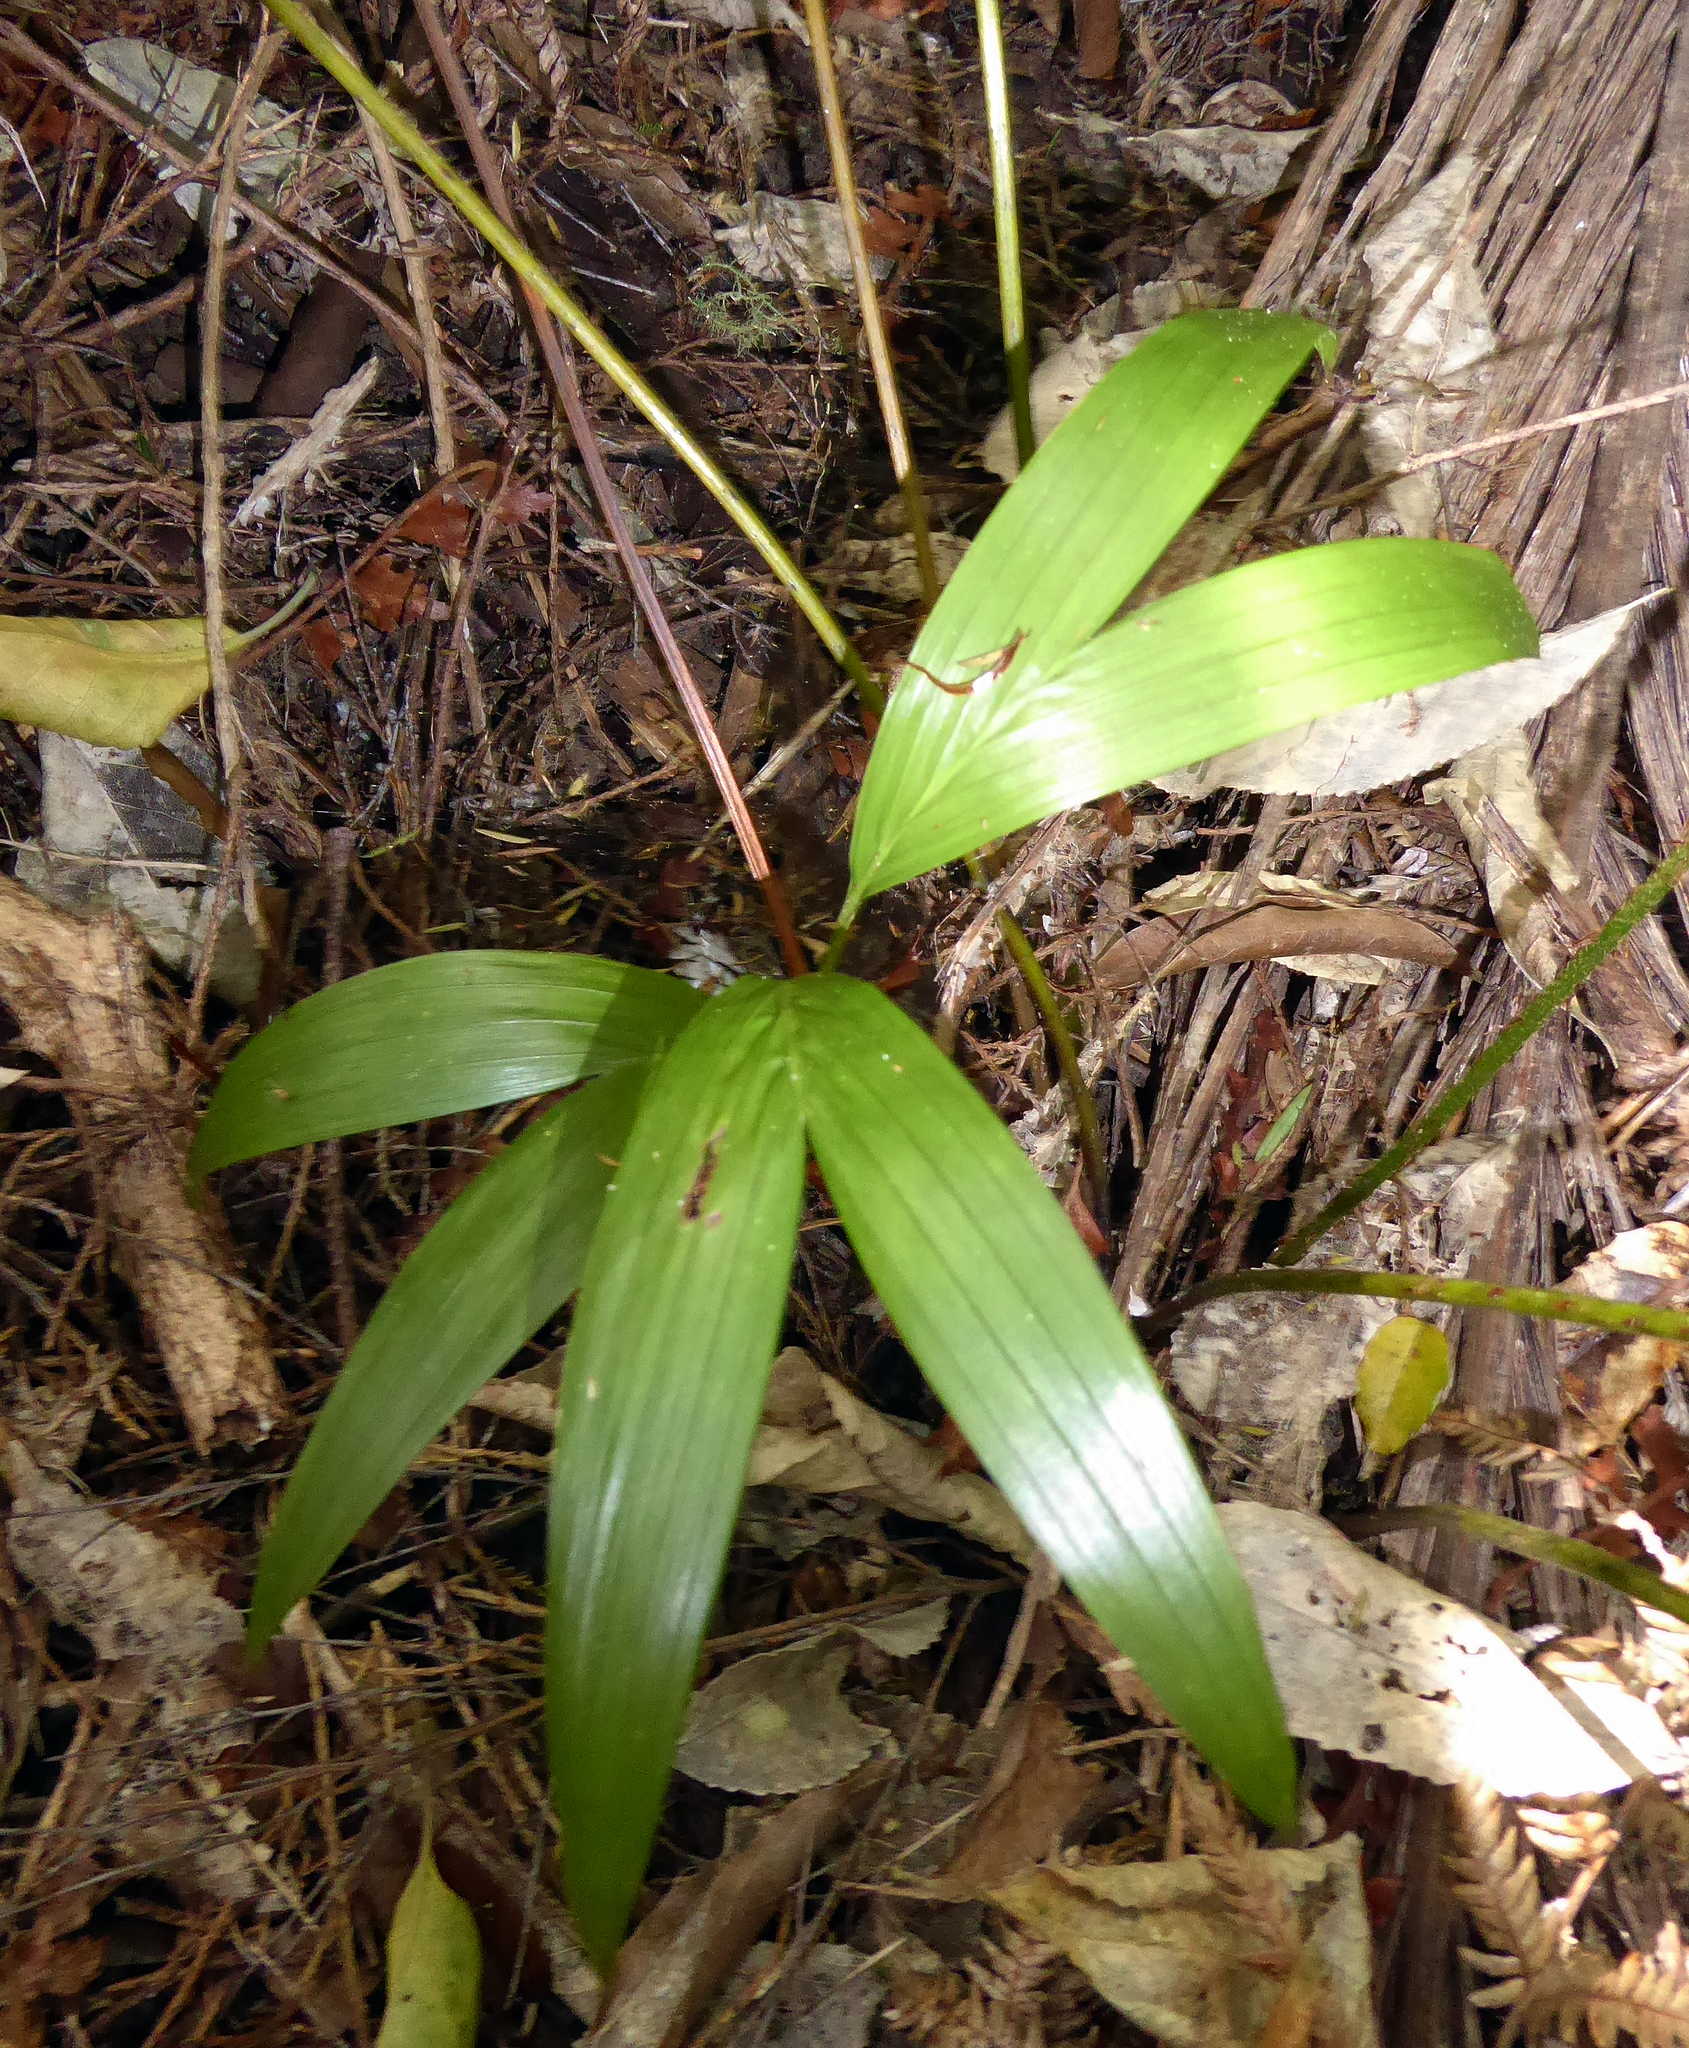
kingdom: Plantae
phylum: Tracheophyta
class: Liliopsida
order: Arecales
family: Arecaceae
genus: Archontophoenix
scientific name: Archontophoenix cunninghamiana
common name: Piccabeen bangalow palm
